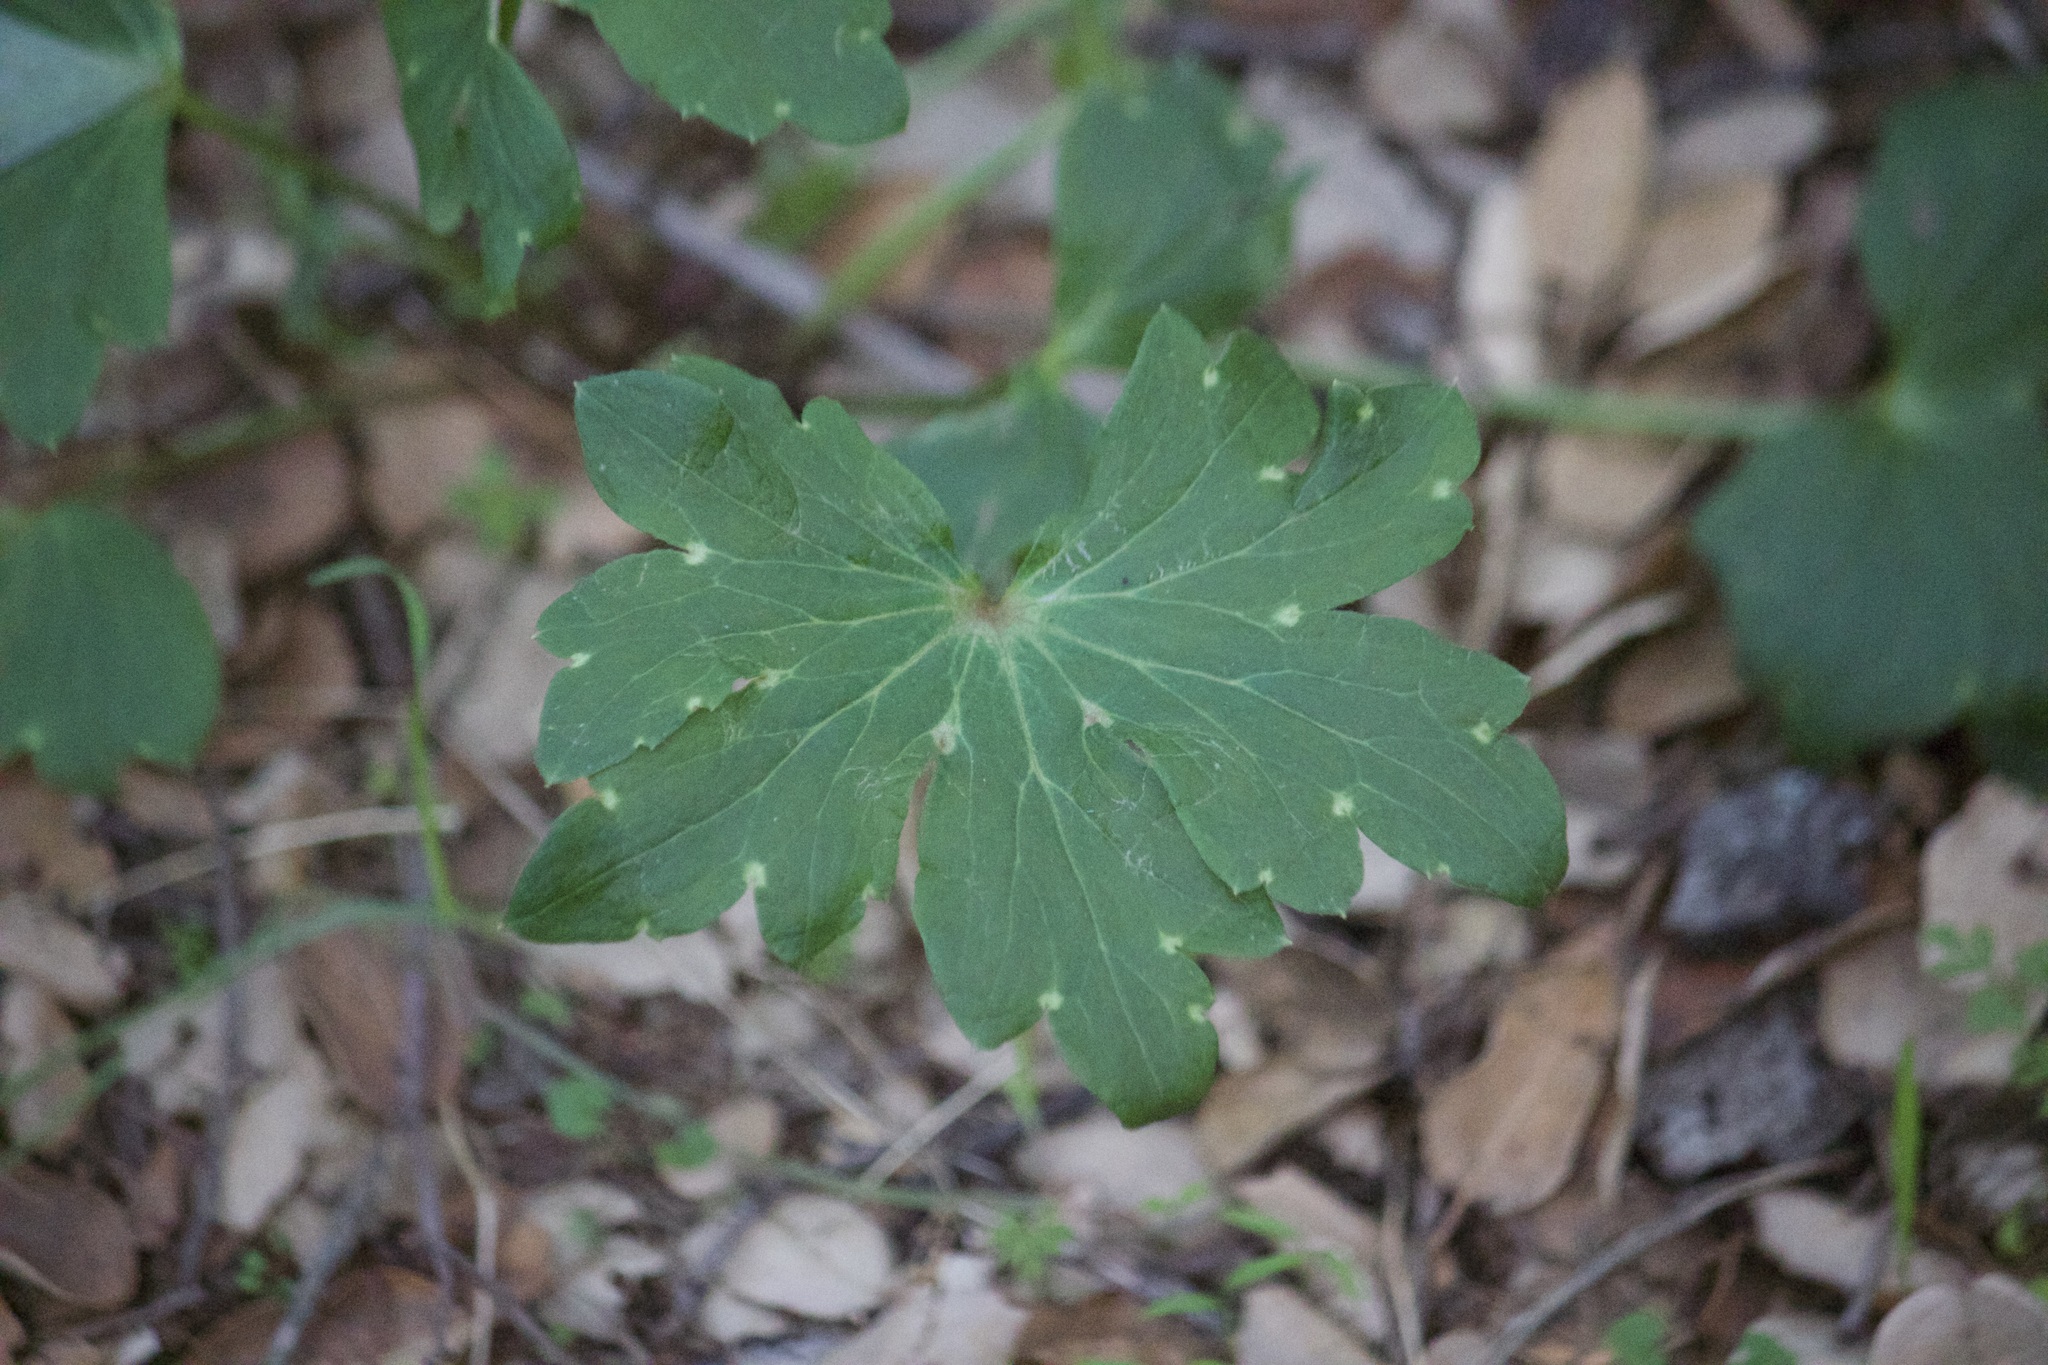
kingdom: Plantae
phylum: Tracheophyta
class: Magnoliopsida
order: Ranunculales
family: Ranunculaceae
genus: Delphinium
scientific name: Delphinium
